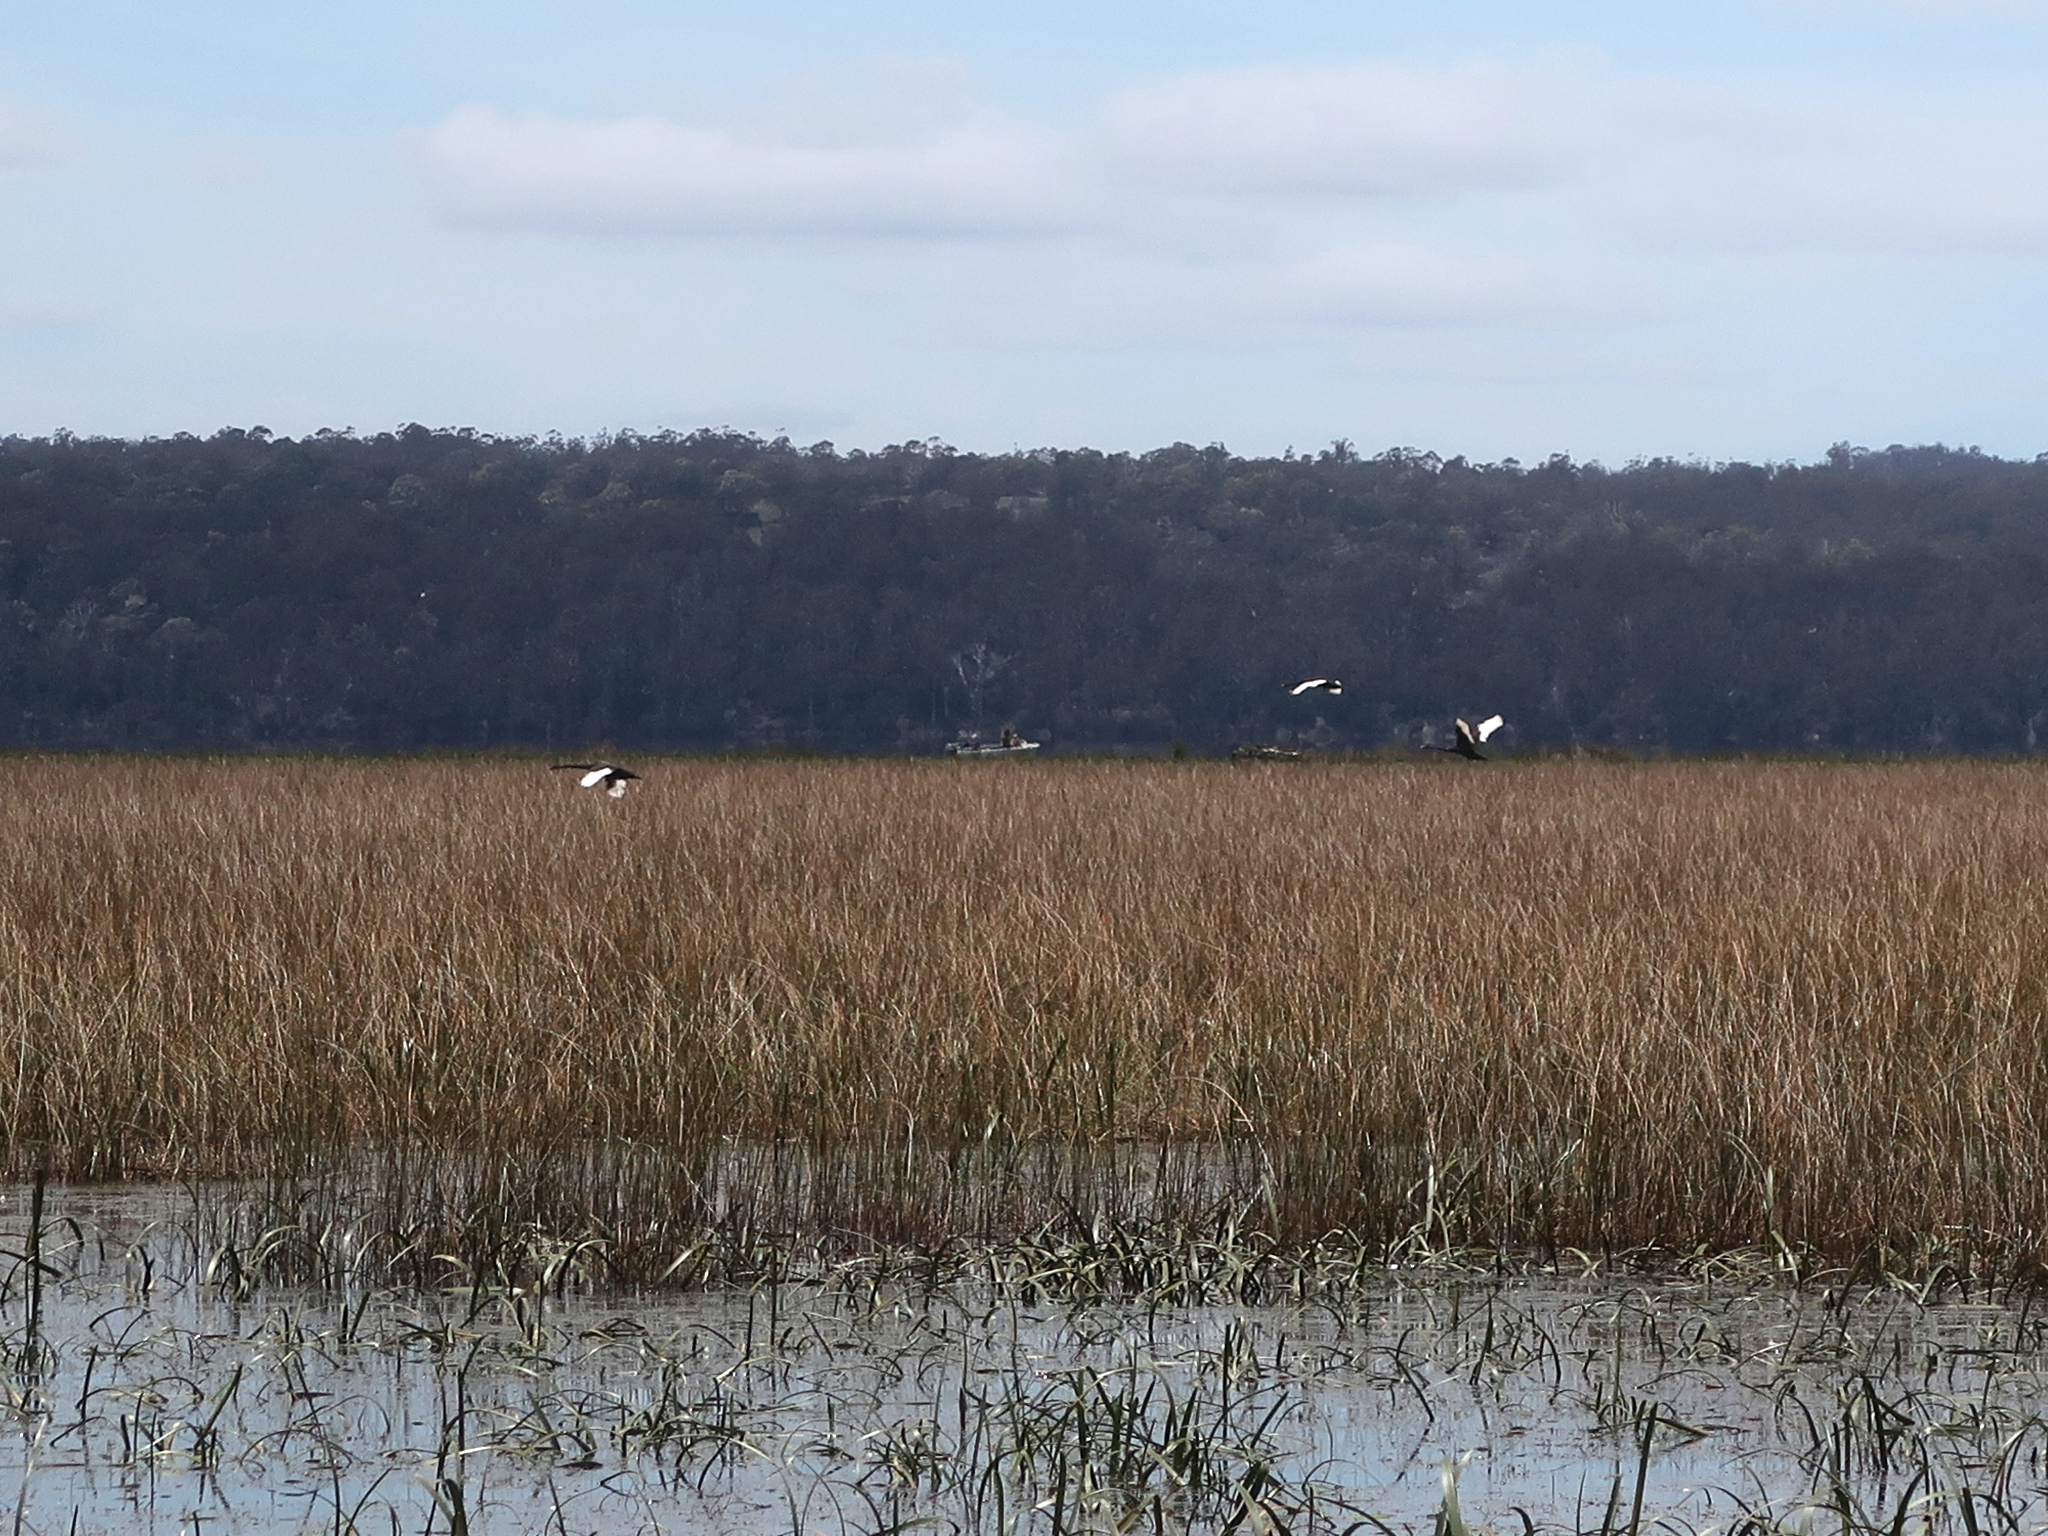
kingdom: Animalia
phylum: Chordata
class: Aves
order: Anseriformes
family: Anatidae
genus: Cygnus
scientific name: Cygnus atratus
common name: Black swan
